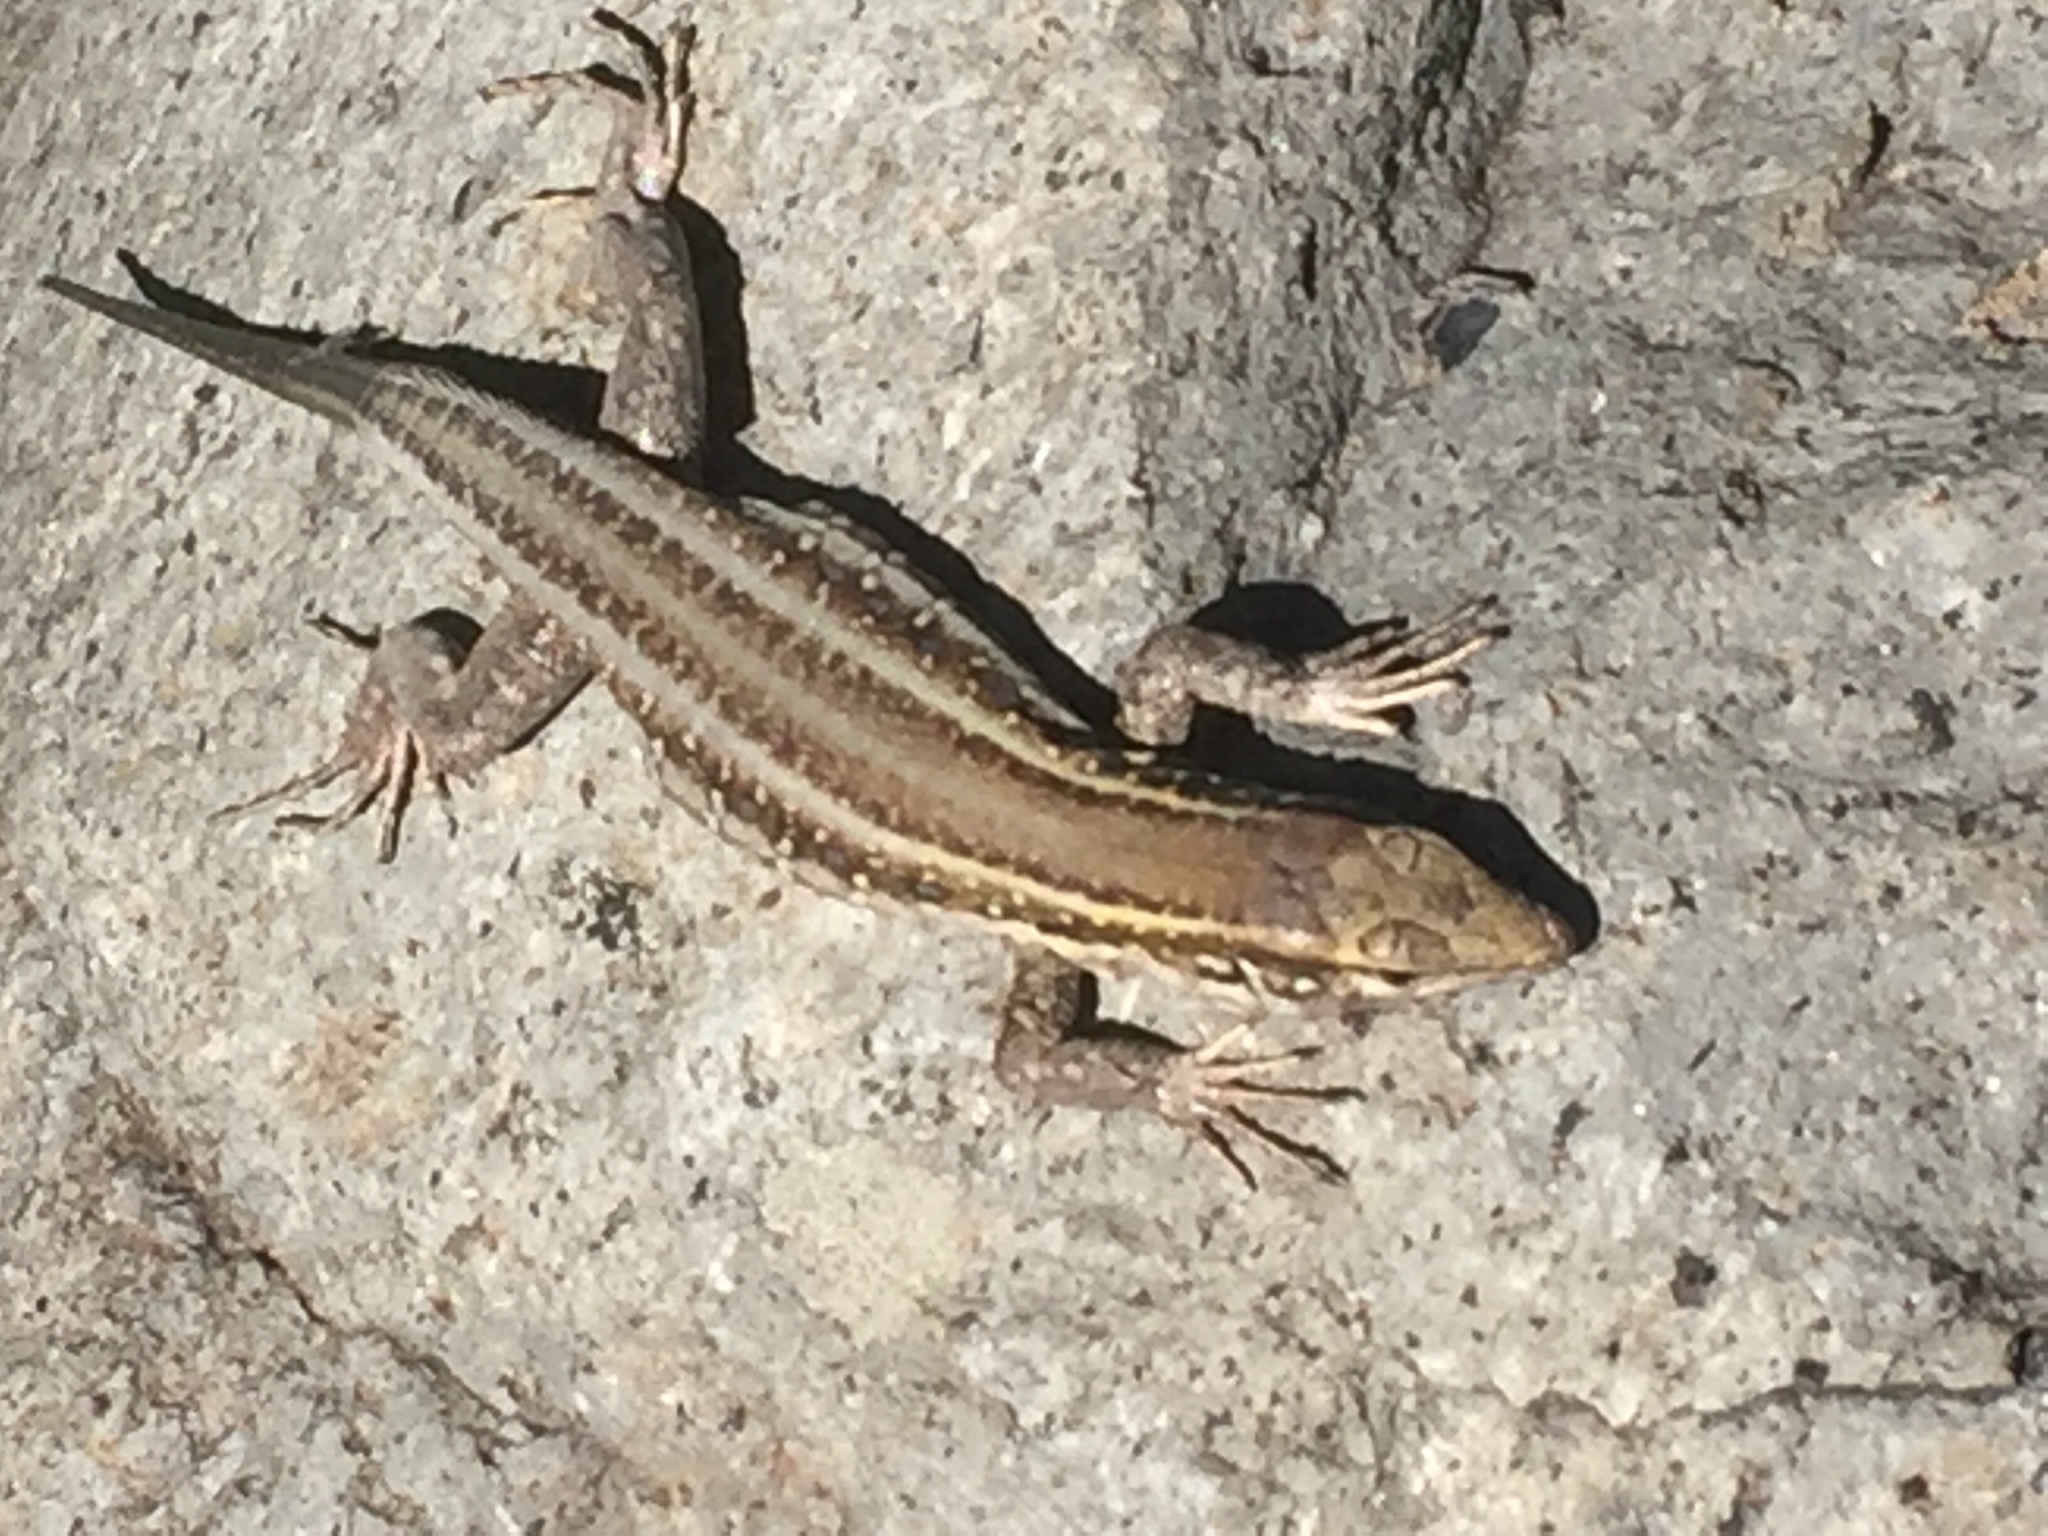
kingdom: Animalia
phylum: Chordata
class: Squamata
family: Lacertidae
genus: Gallotia
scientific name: Gallotia galloti
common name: Gallot's lizard
